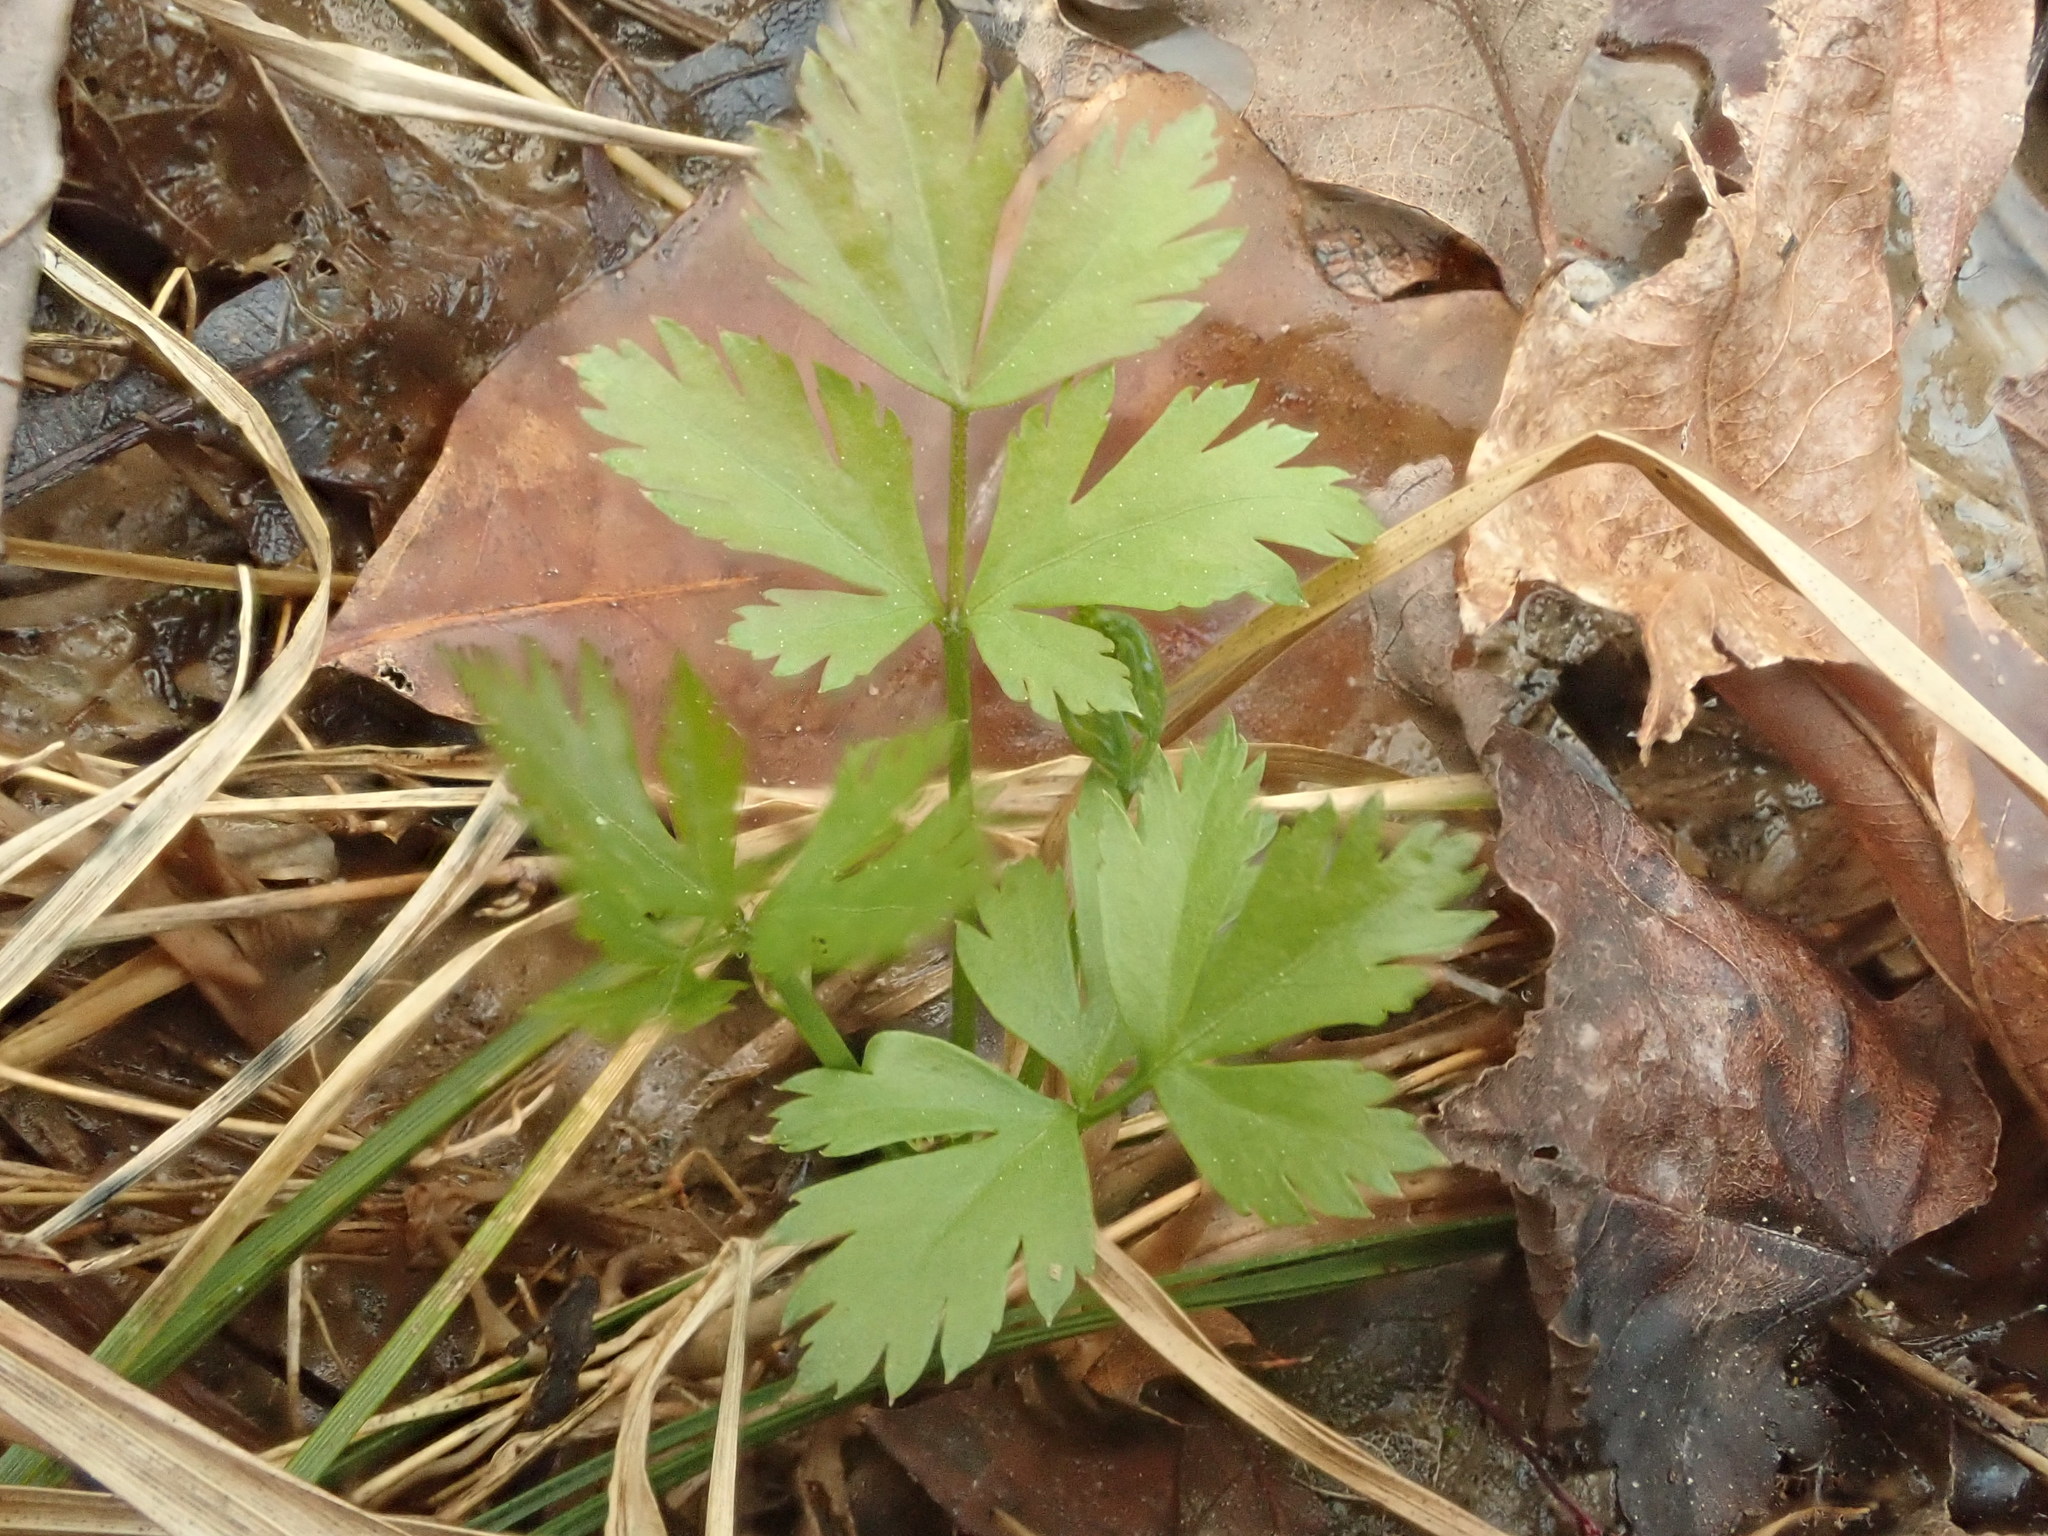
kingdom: Plantae
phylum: Tracheophyta
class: Magnoliopsida
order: Ranunculales
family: Ranunculaceae
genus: Xanthorhiza
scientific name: Xanthorhiza simplicissima
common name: Yellowroot
